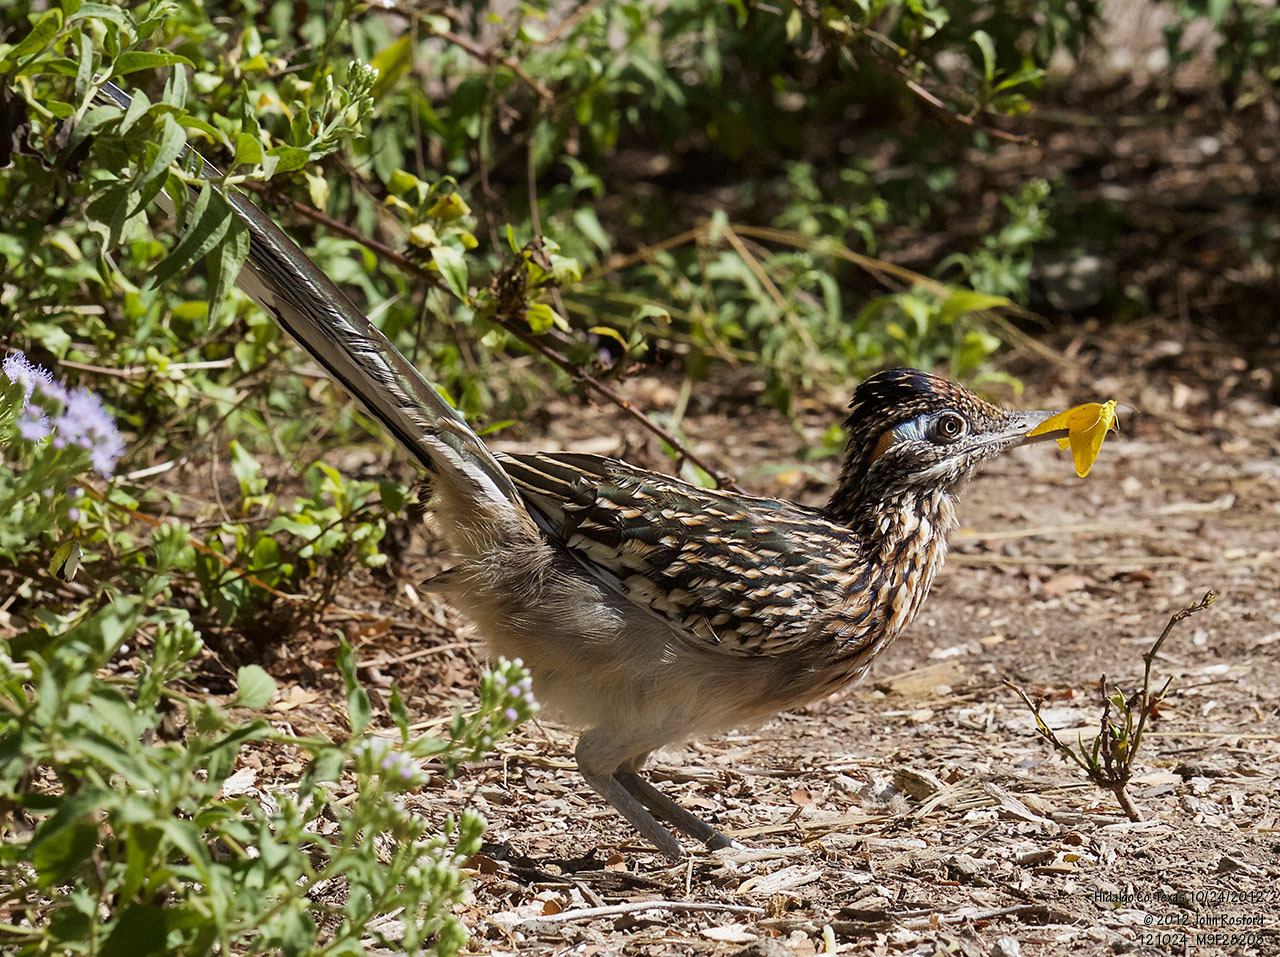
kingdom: Animalia
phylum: Chordata
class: Aves
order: Cuculiformes
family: Cuculidae
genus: Geococcyx
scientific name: Geococcyx californianus
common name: Greater roadrunner
